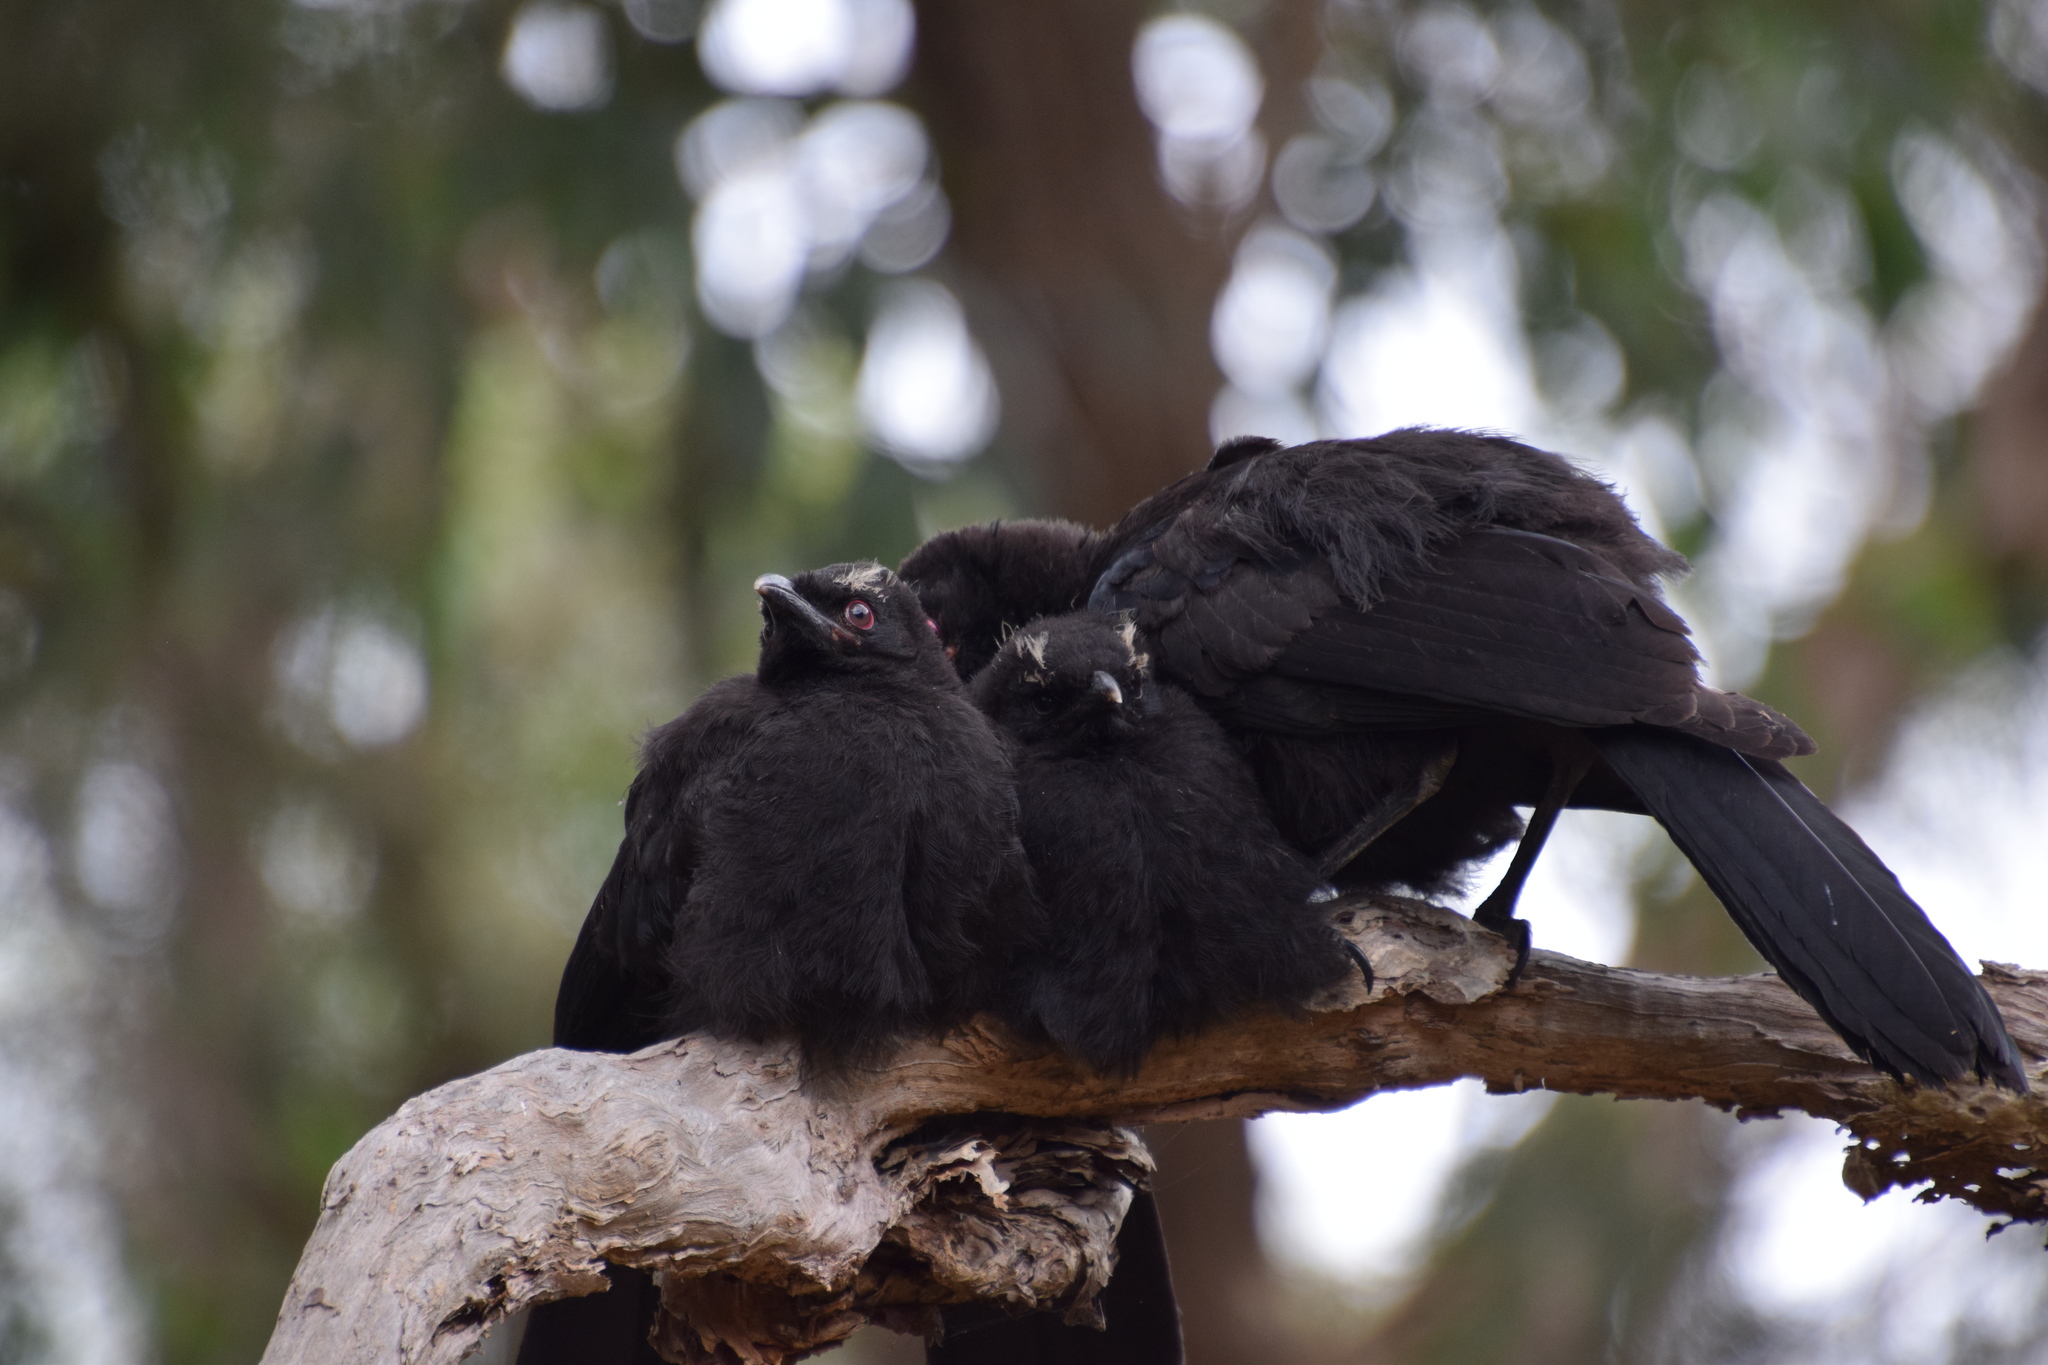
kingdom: Animalia
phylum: Chordata
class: Aves
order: Passeriformes
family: Corcoracidae
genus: Corcorax
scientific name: Corcorax melanoramphos
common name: White-winged chough
